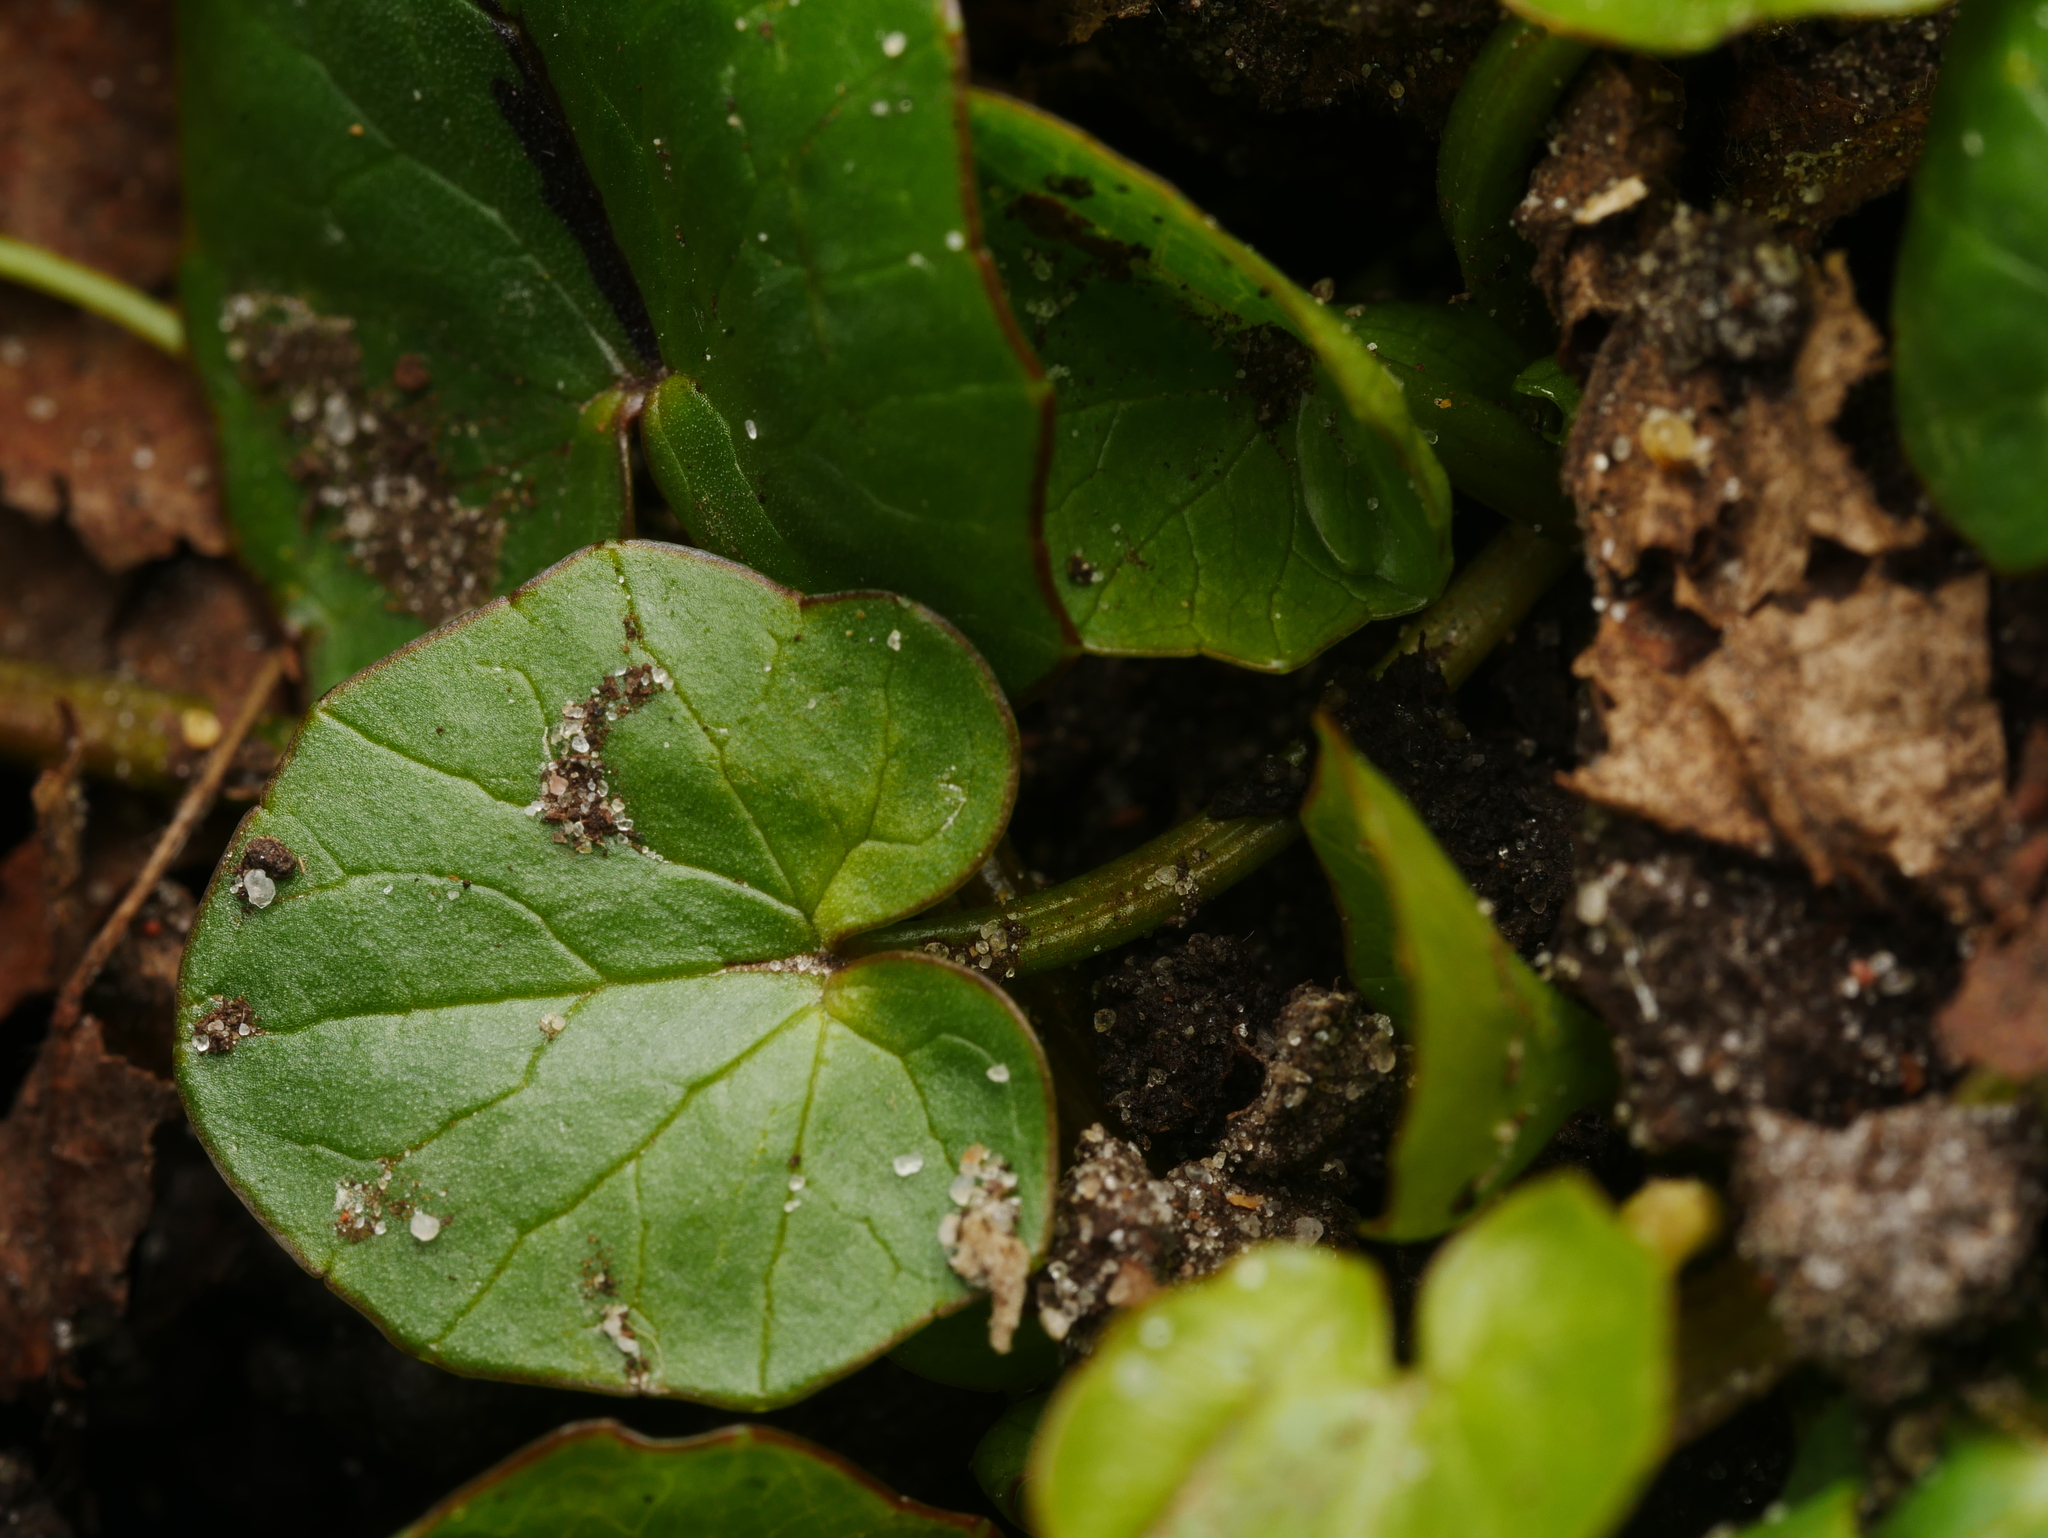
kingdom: Plantae
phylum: Tracheophyta
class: Magnoliopsida
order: Ranunculales
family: Ranunculaceae
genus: Ficaria
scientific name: Ficaria verna
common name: Lesser celandine
